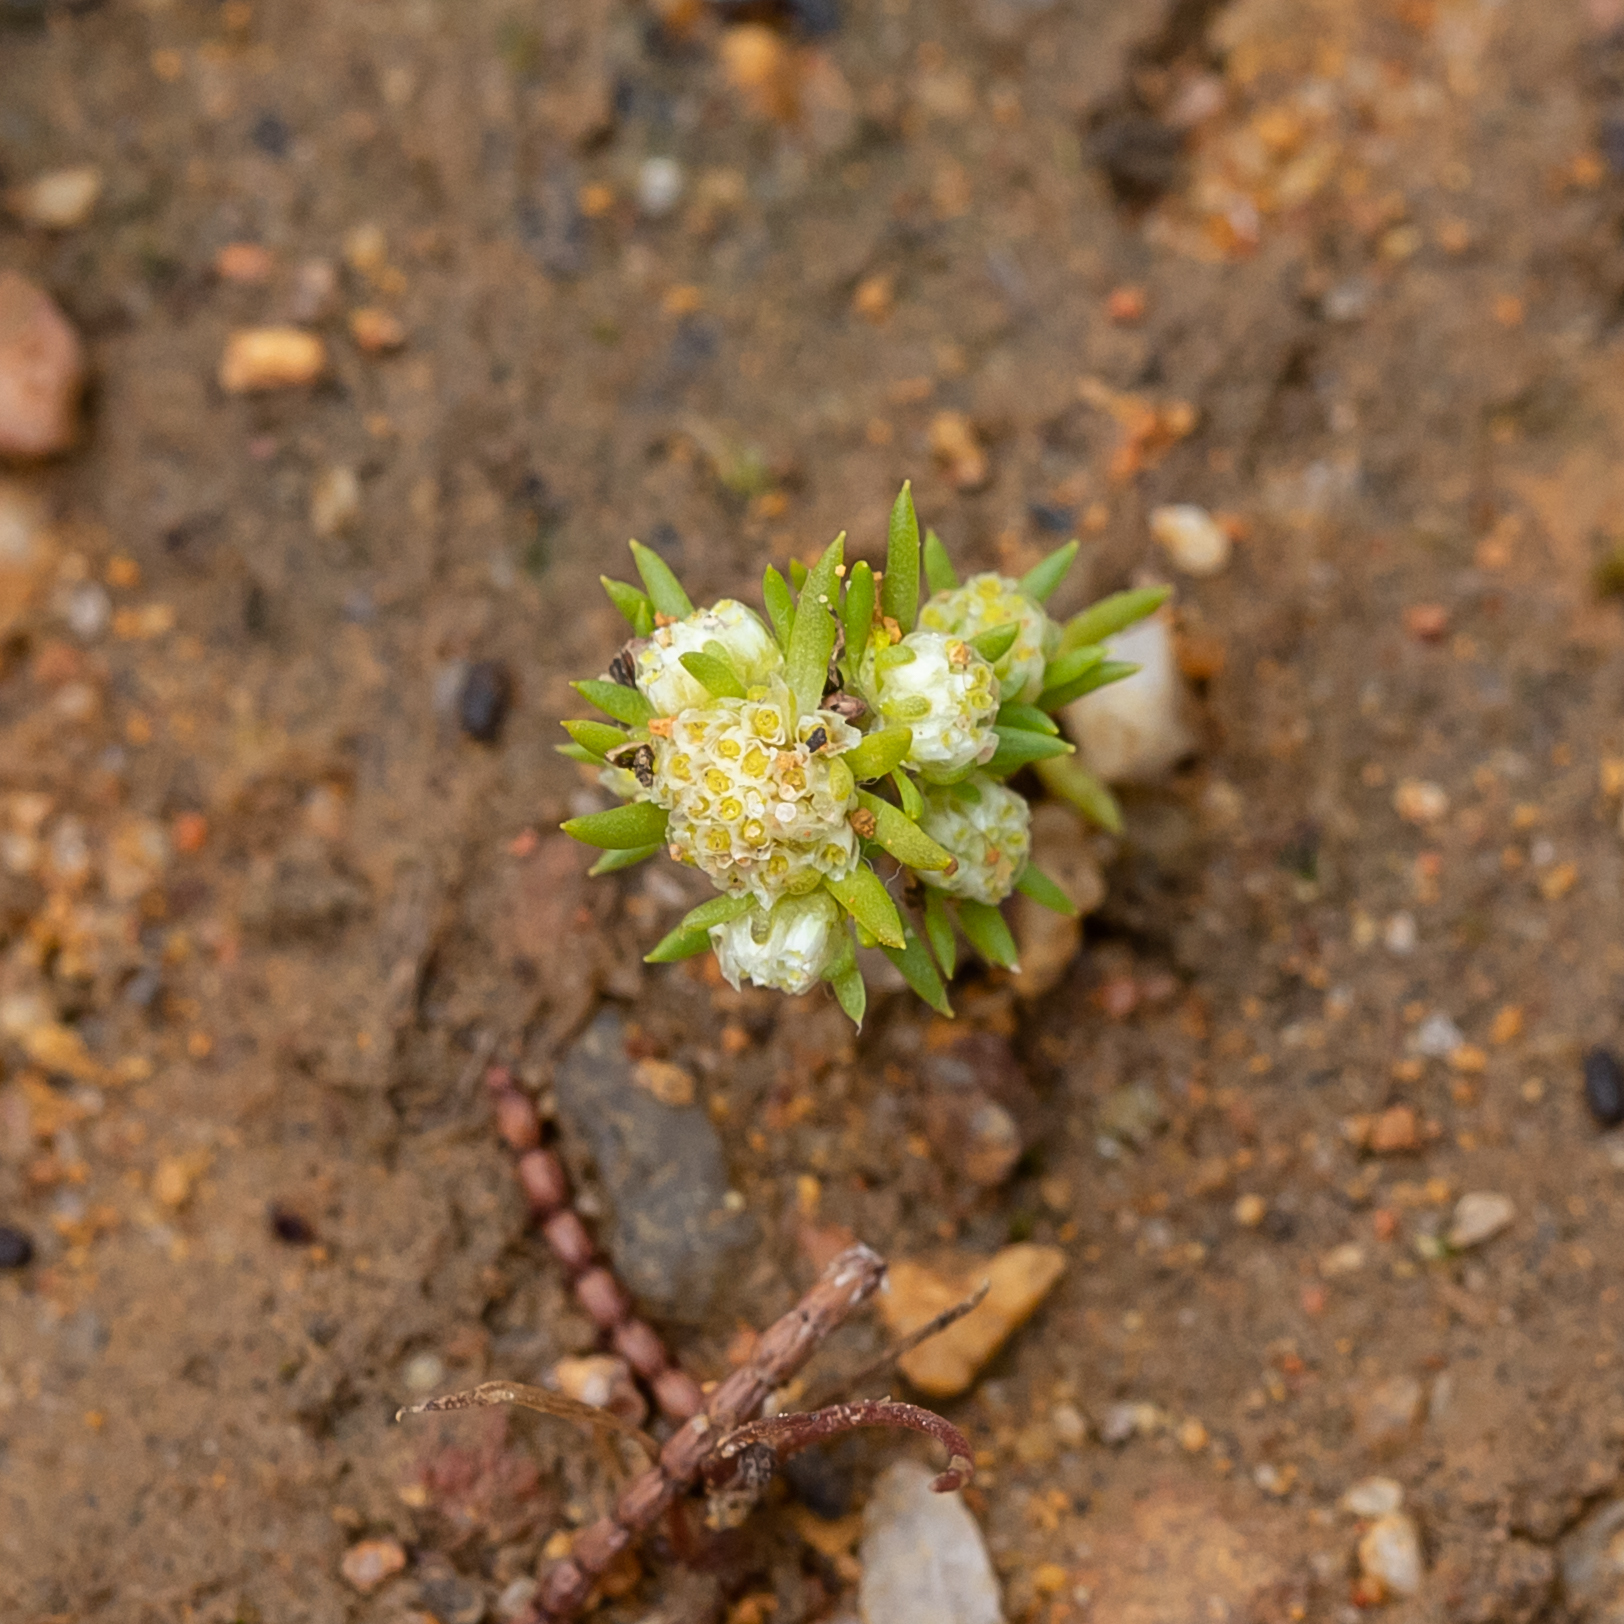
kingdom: Plantae
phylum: Tracheophyta
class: Magnoliopsida
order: Asterales
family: Asteraceae
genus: Siloxerus
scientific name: Siloxerus multiflorus
